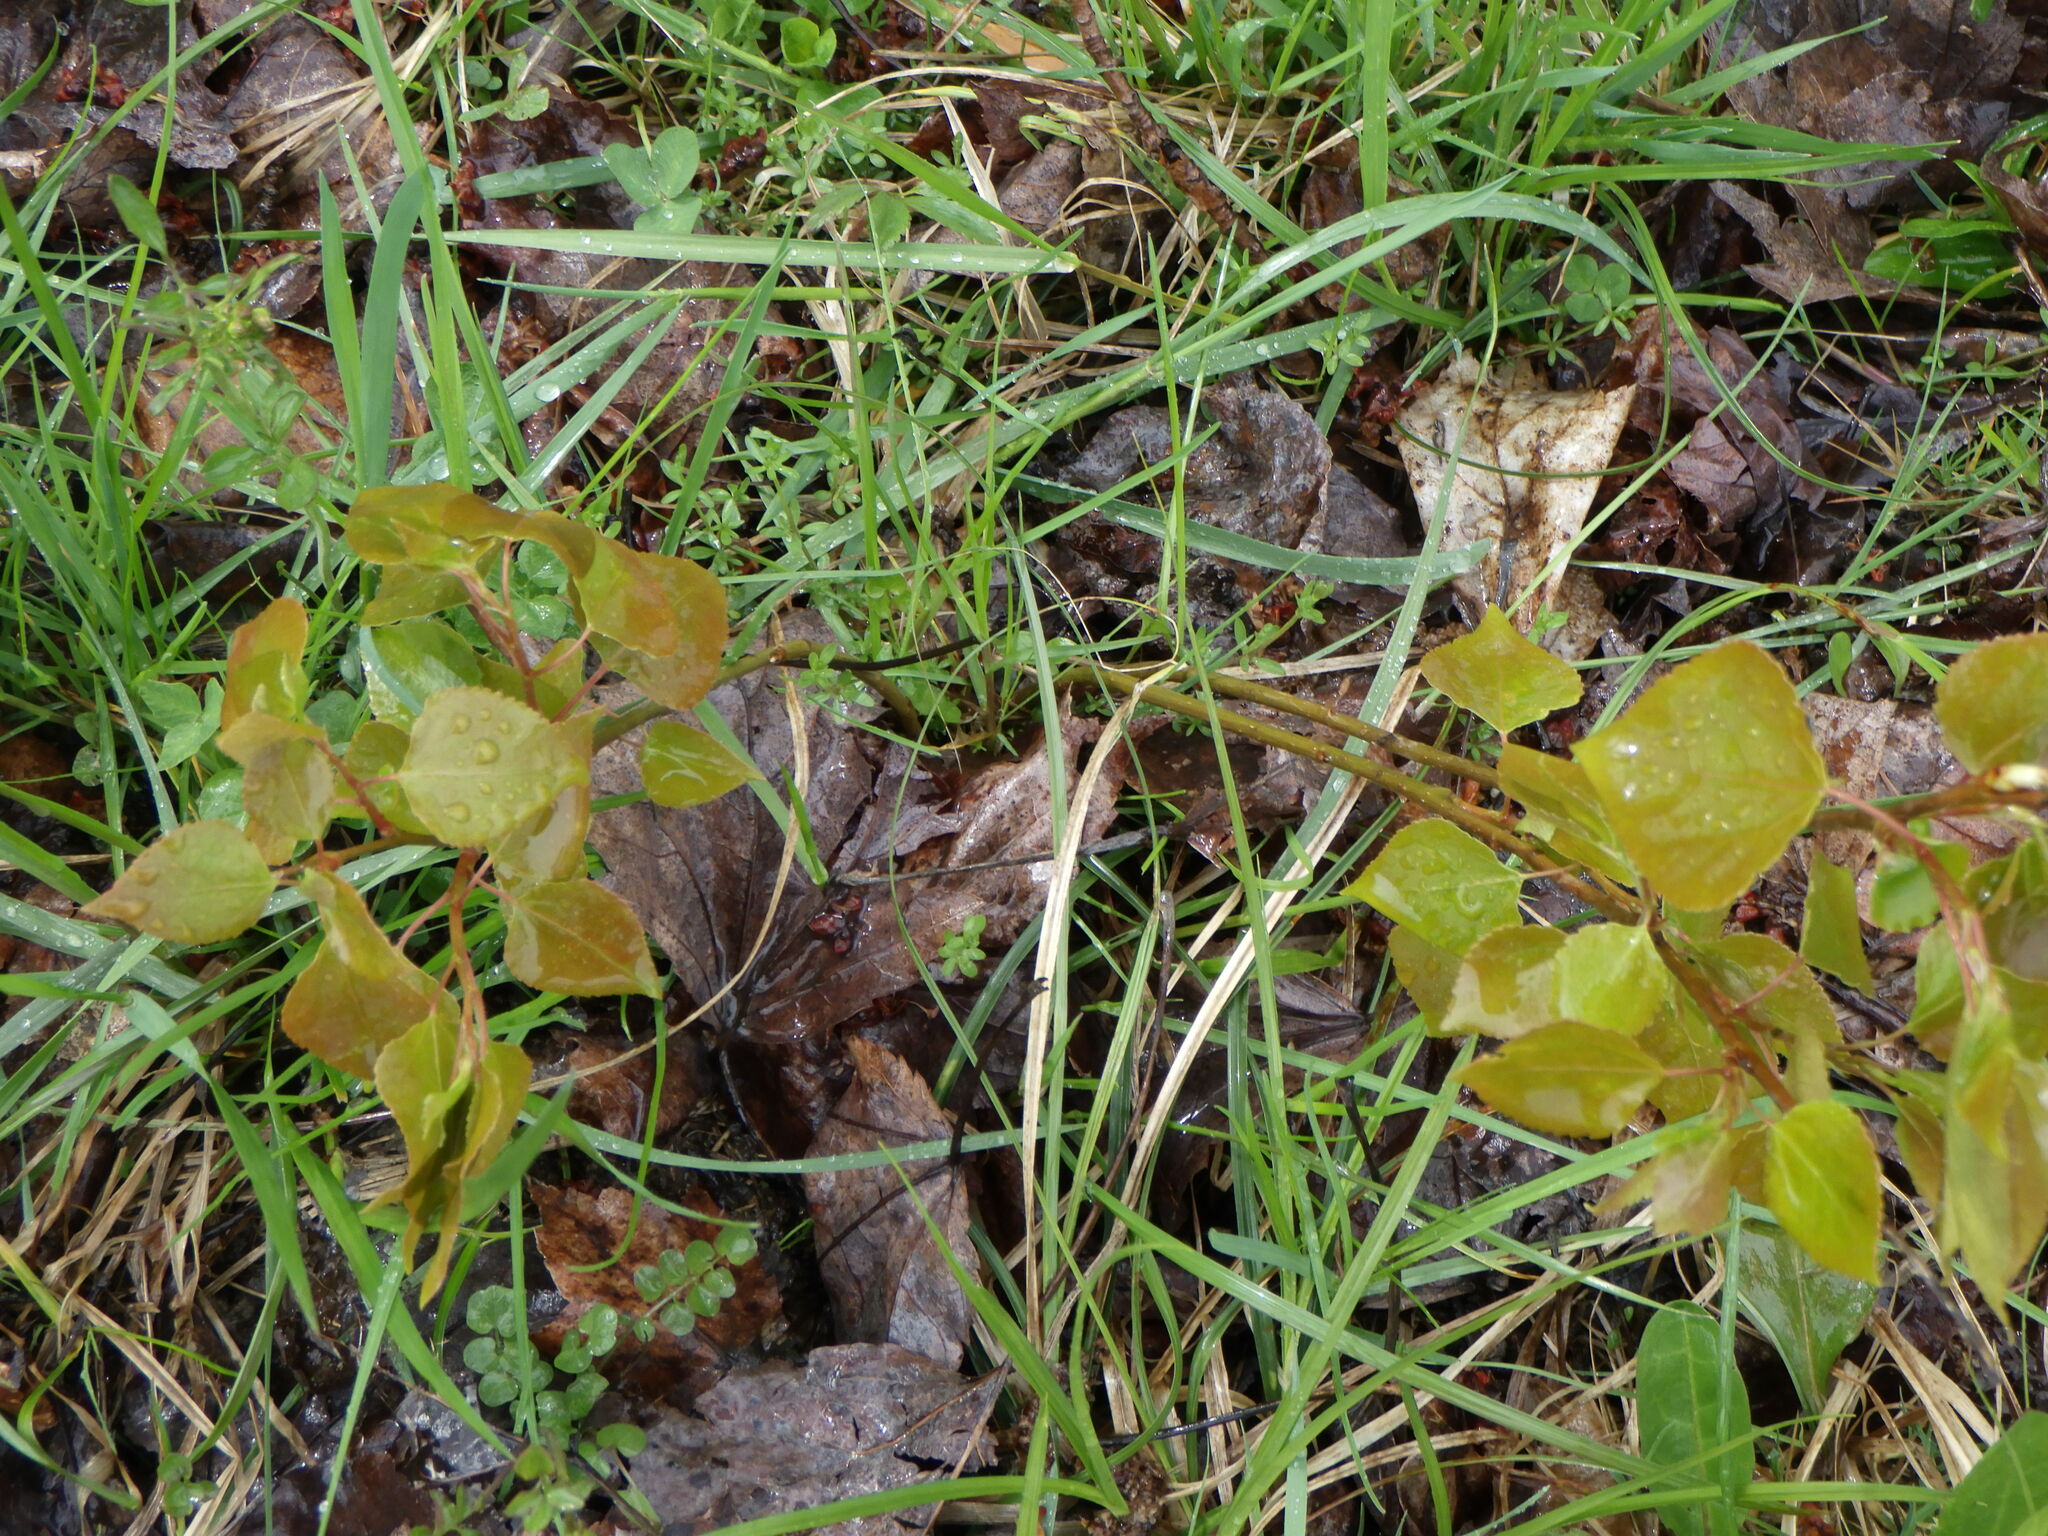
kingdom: Plantae
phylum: Tracheophyta
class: Magnoliopsida
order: Malpighiales
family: Salicaceae
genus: Populus
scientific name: Populus tremuloides
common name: Quaking aspen
